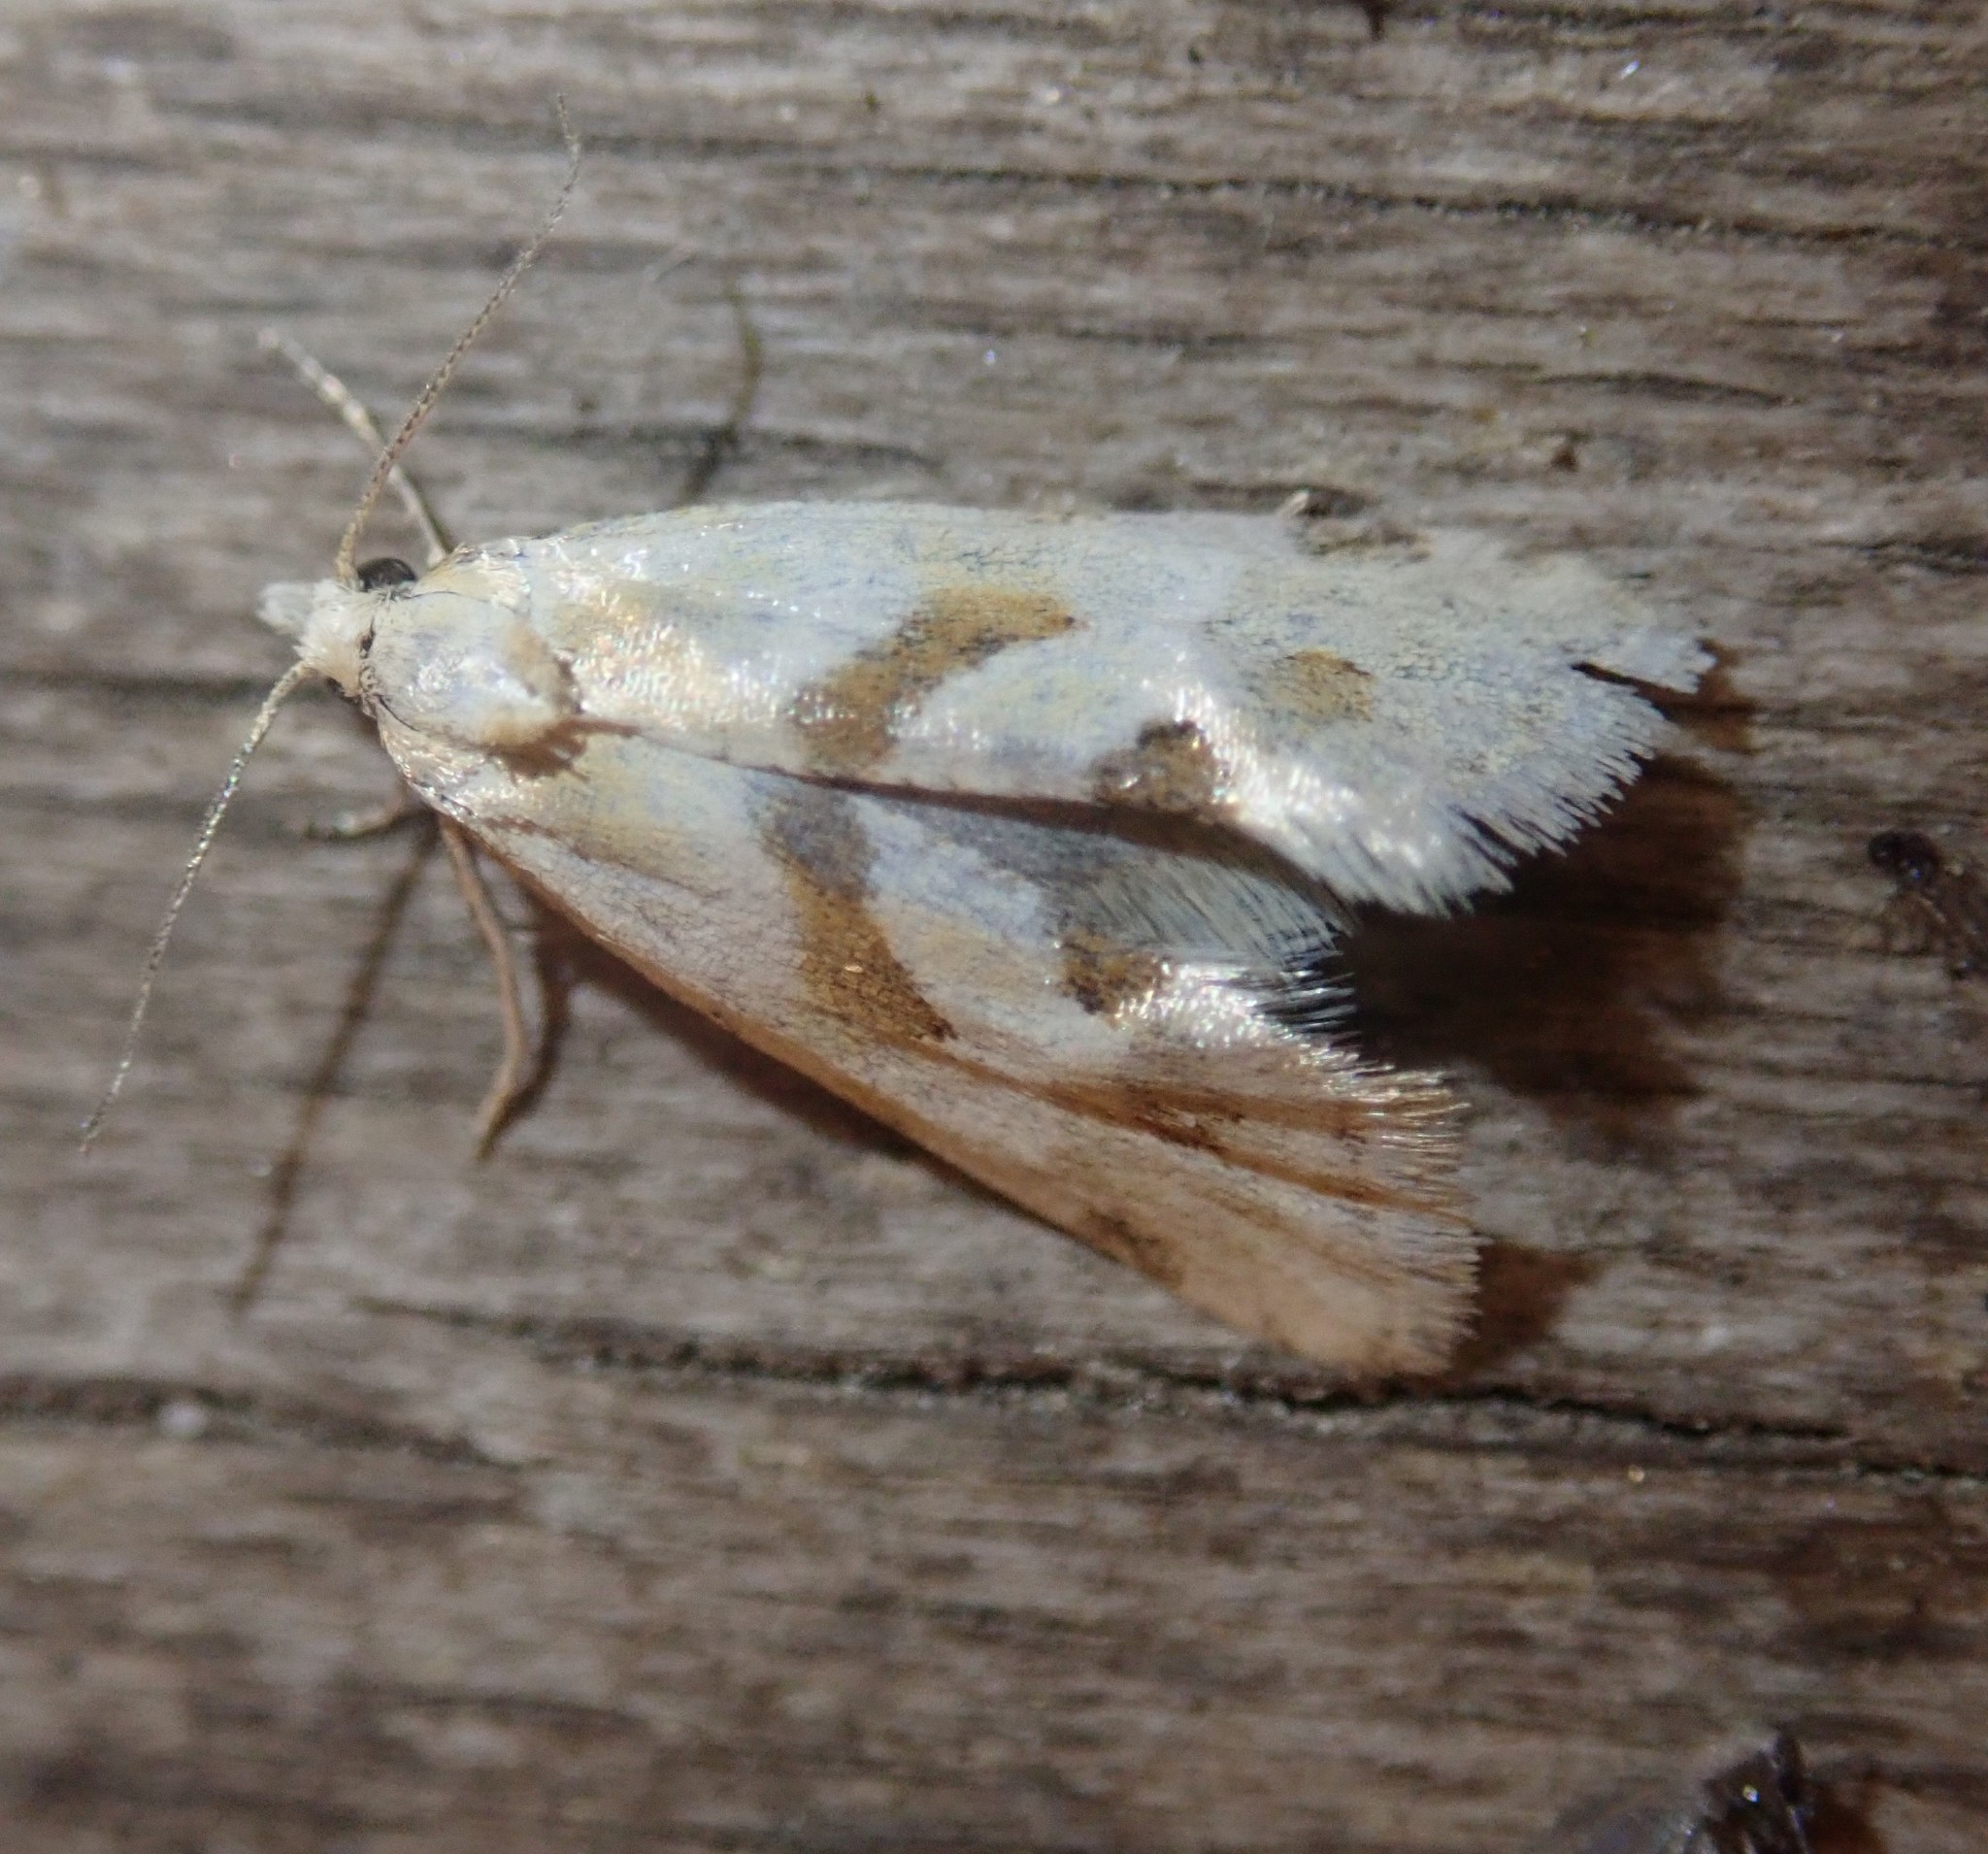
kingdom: Animalia
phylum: Arthropoda
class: Insecta
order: Lepidoptera
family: Tortricidae
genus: Aethes
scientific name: Aethes smeathmanniana
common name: Yarrow conch
